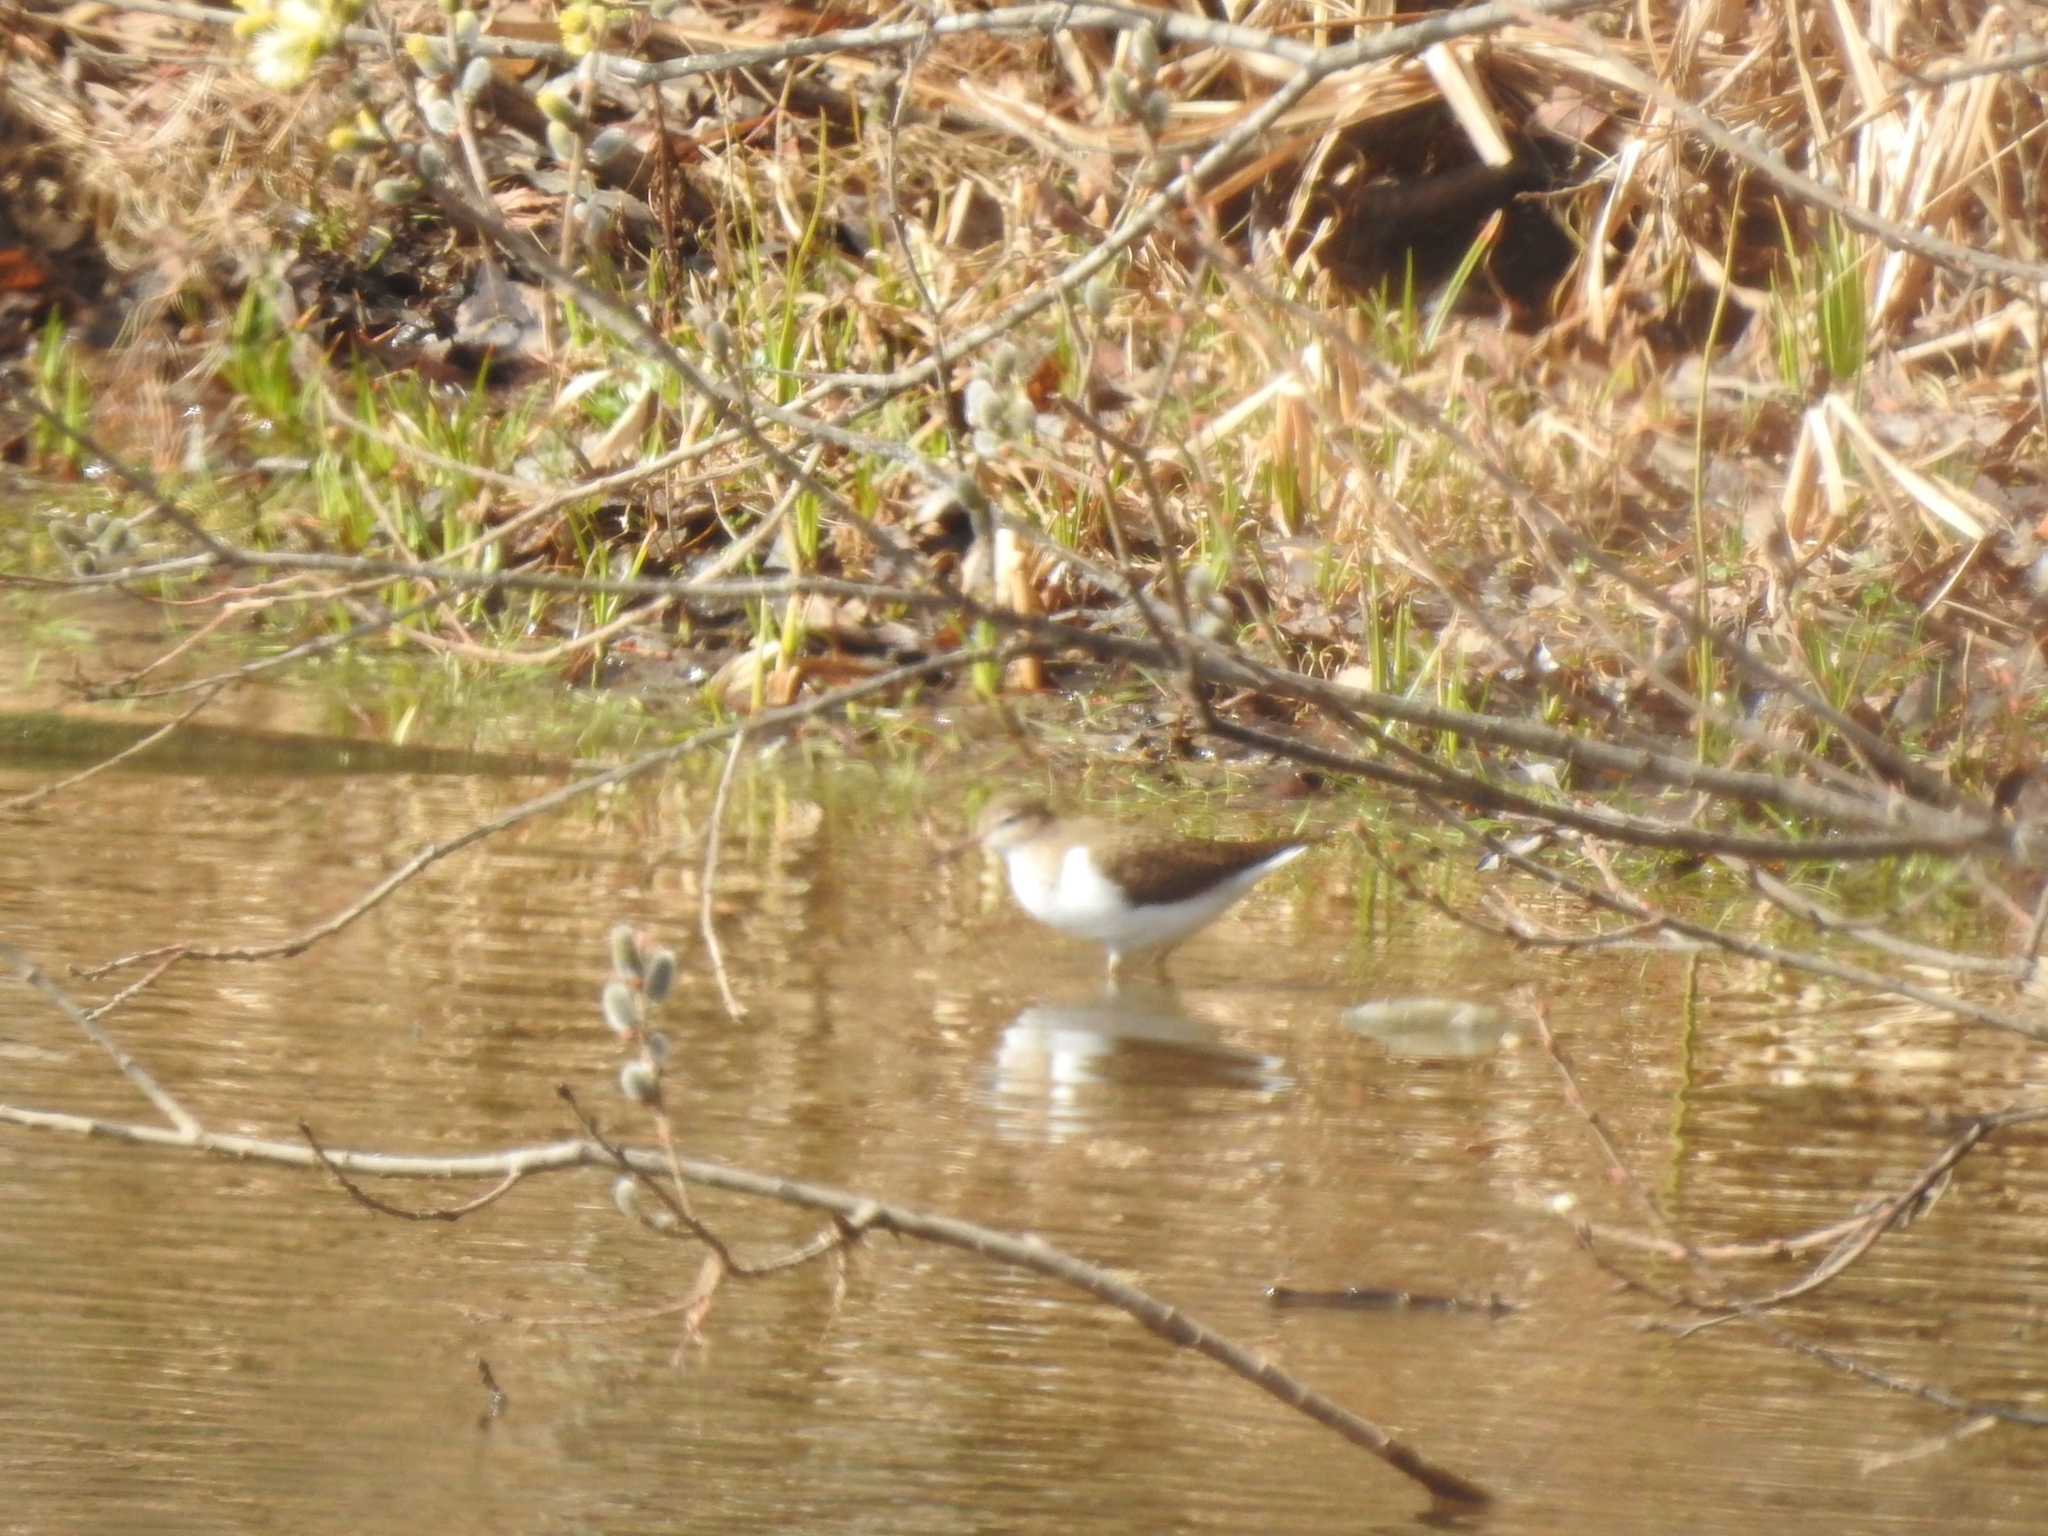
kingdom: Animalia
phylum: Chordata
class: Aves
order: Charadriiformes
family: Scolopacidae
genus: Actitis
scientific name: Actitis hypoleucos
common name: Common sandpiper
